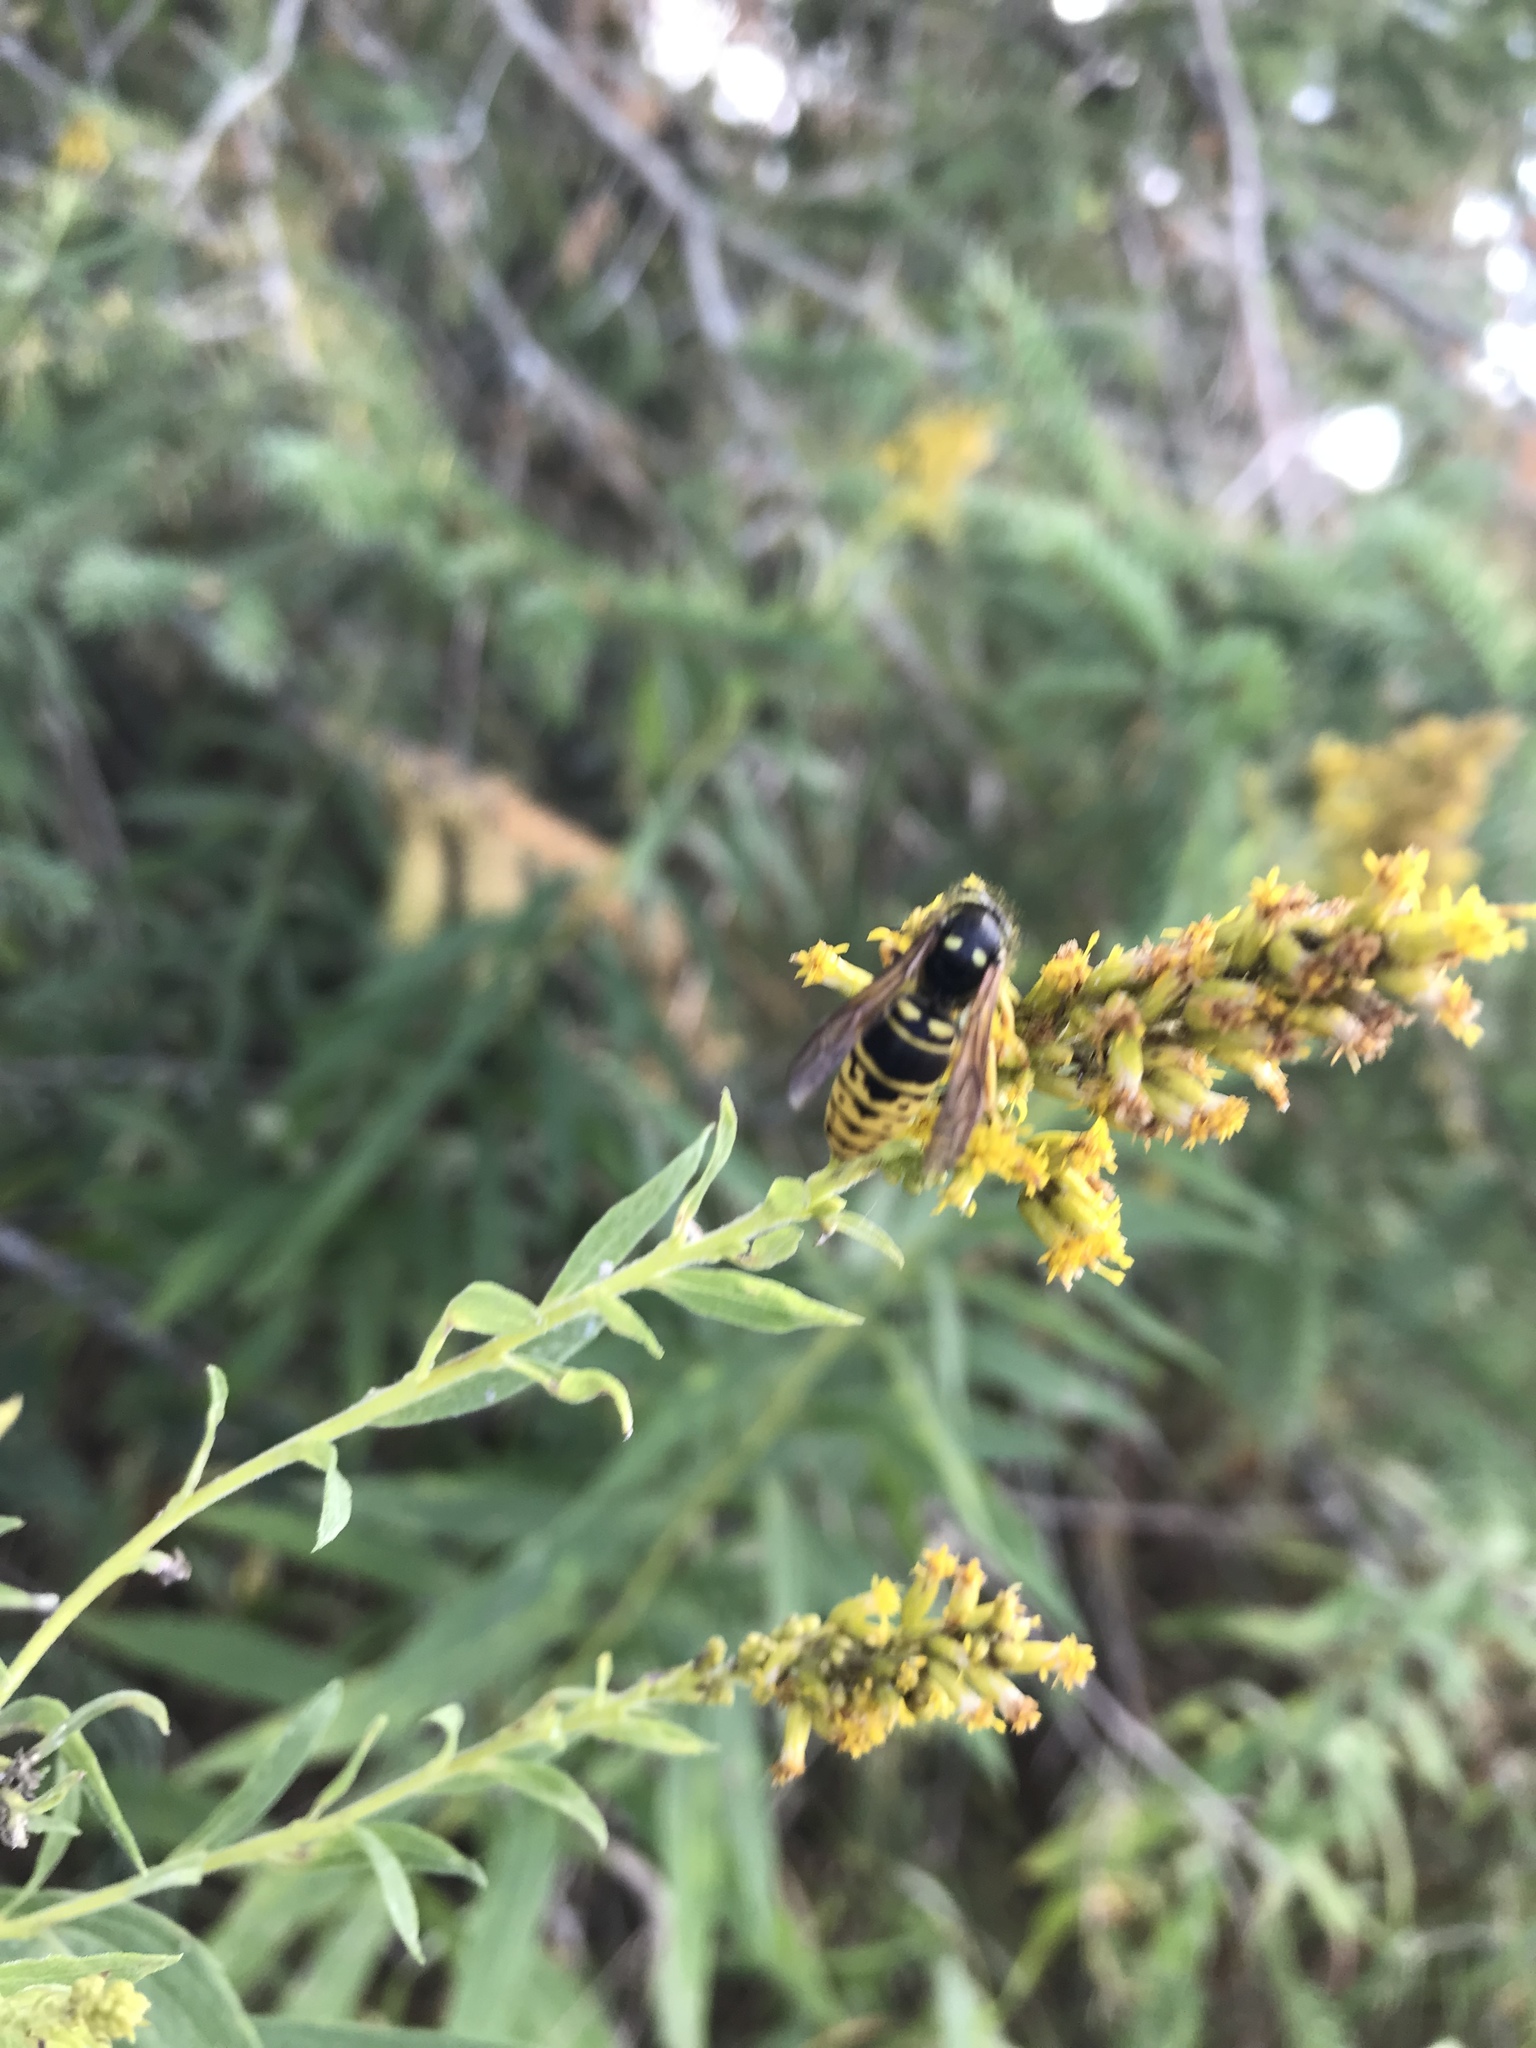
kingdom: Animalia
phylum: Arthropoda
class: Insecta
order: Hymenoptera
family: Vespidae
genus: Vespula
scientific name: Vespula vidua
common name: Widow yellowjacket
